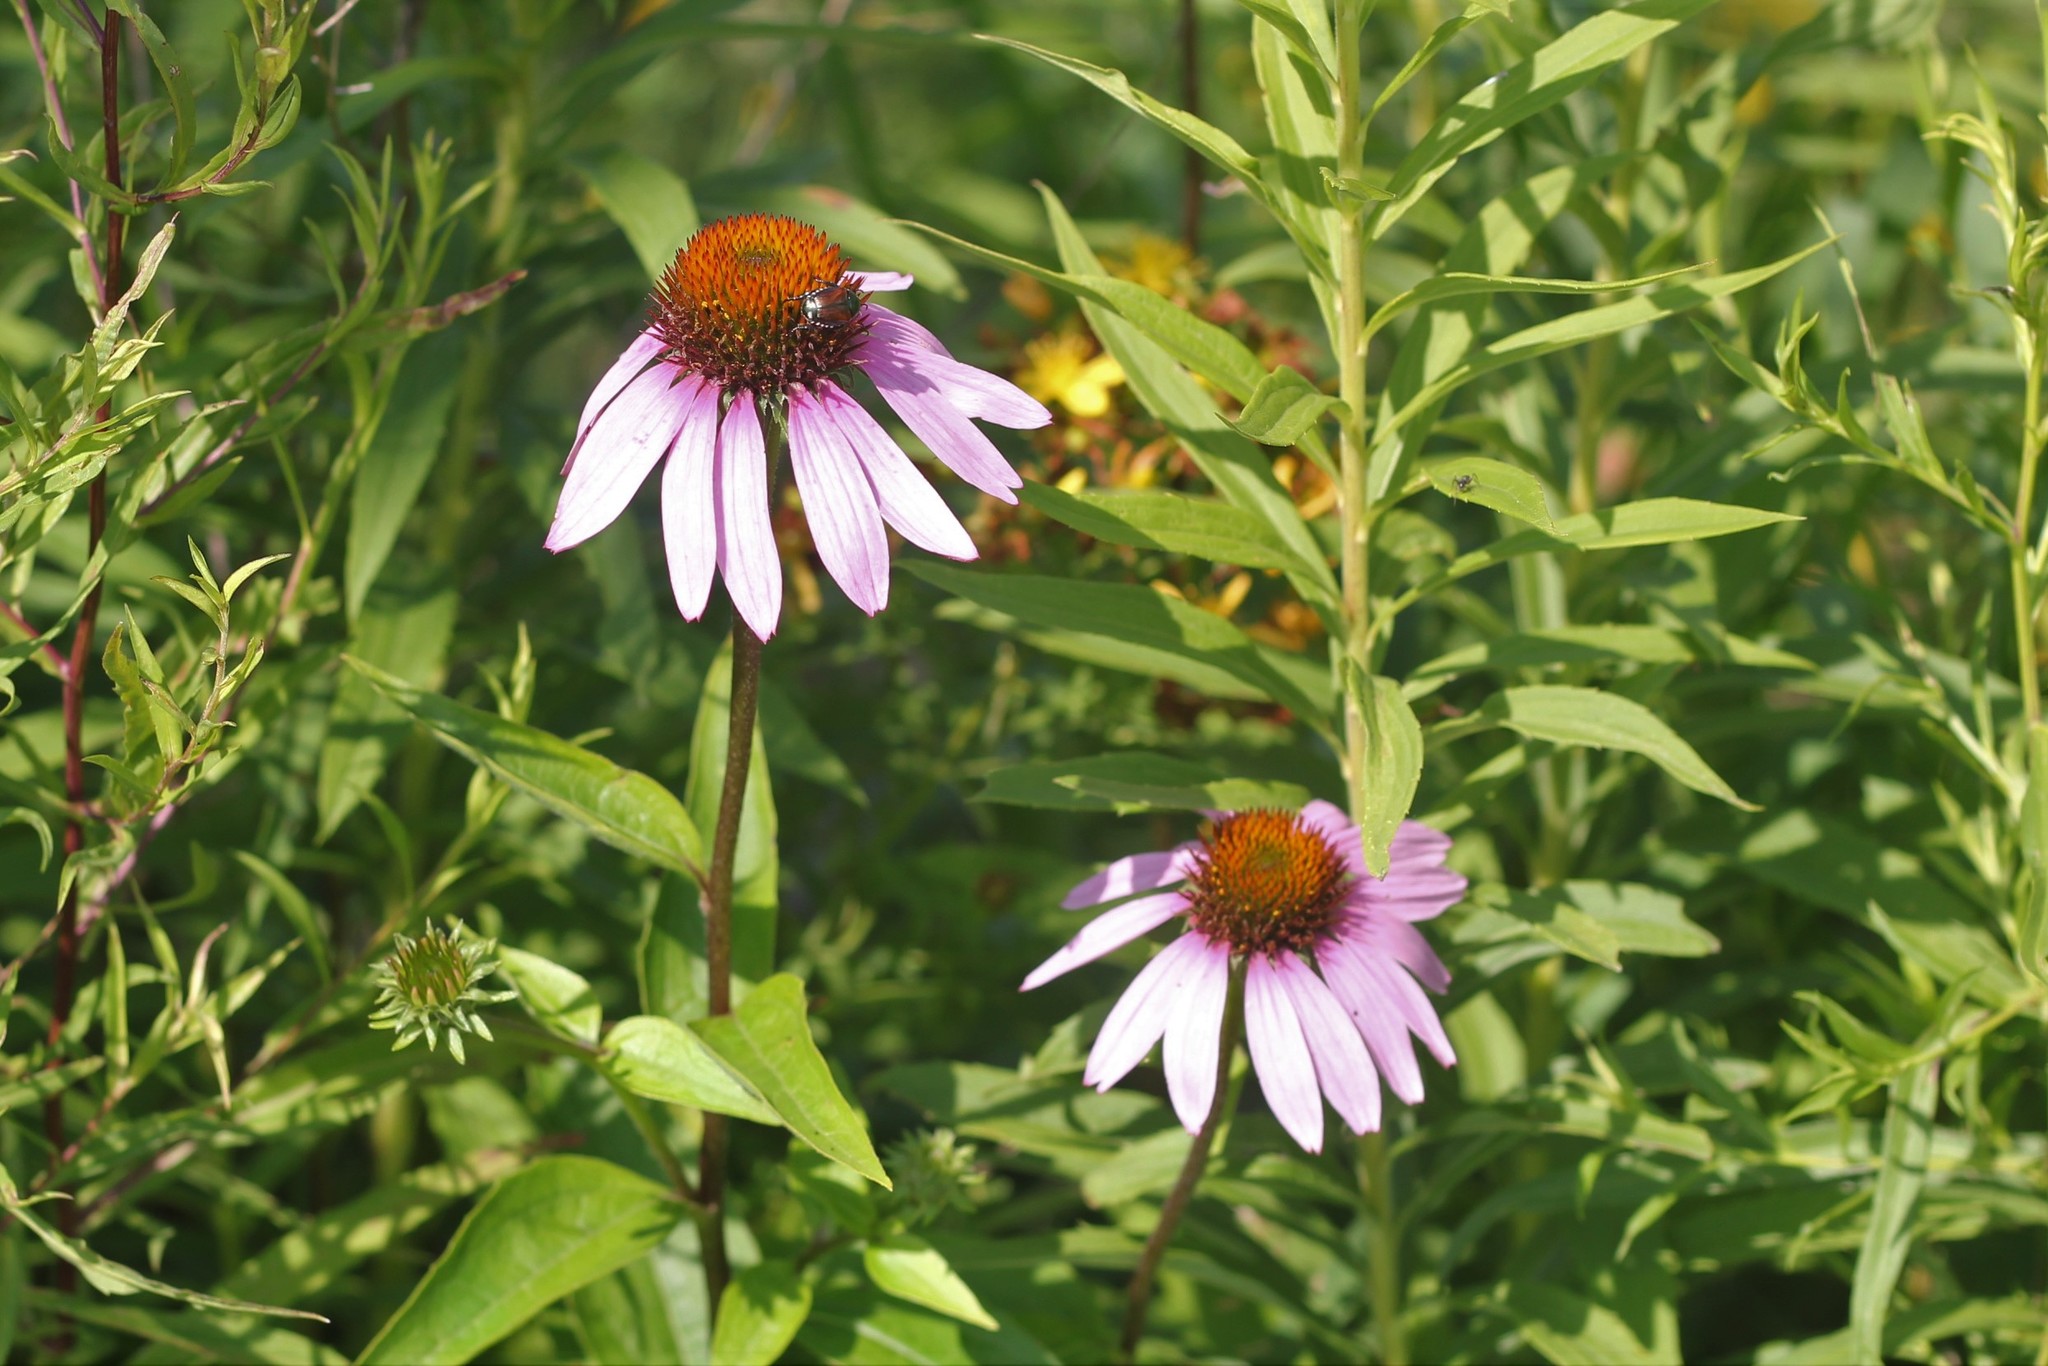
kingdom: Plantae
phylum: Tracheophyta
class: Magnoliopsida
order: Asterales
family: Asteraceae
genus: Echinacea
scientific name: Echinacea purpurea
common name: Broad-leaved purple coneflower
